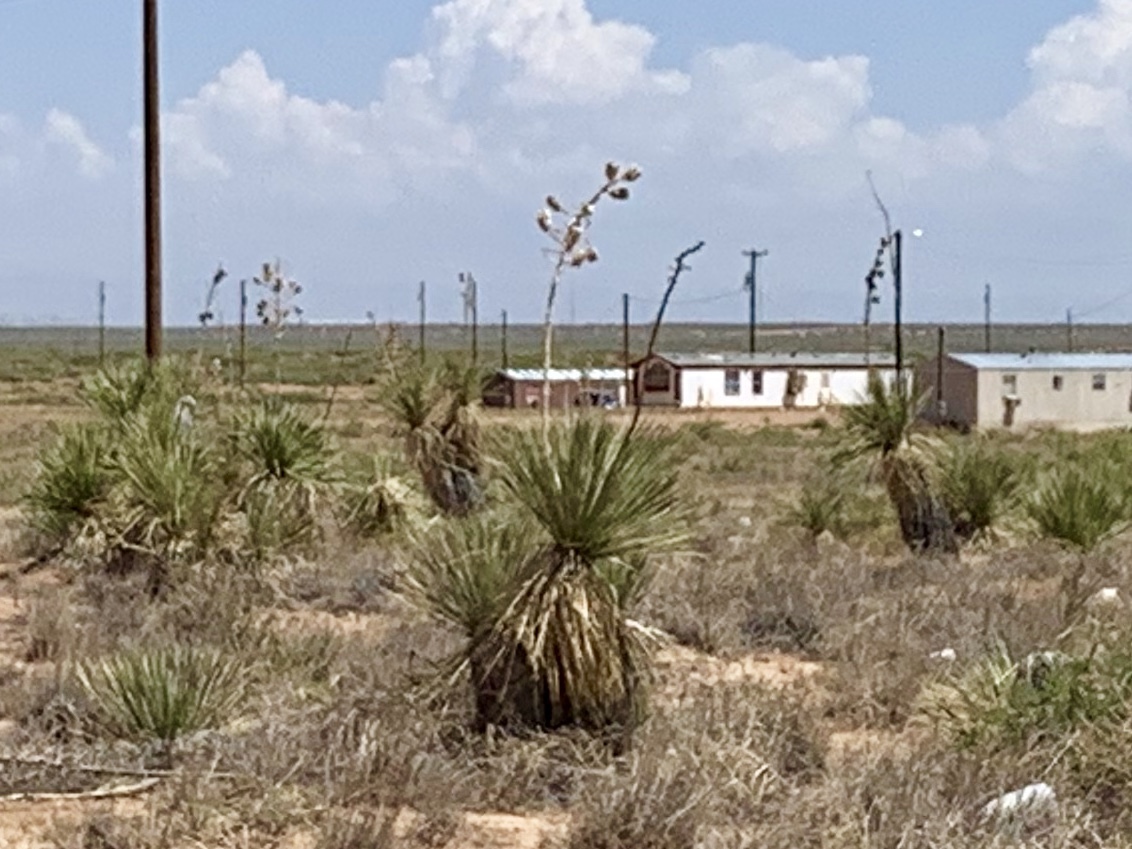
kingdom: Plantae
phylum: Tracheophyta
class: Liliopsida
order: Asparagales
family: Asparagaceae
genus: Yucca
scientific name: Yucca elata
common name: Palmella
